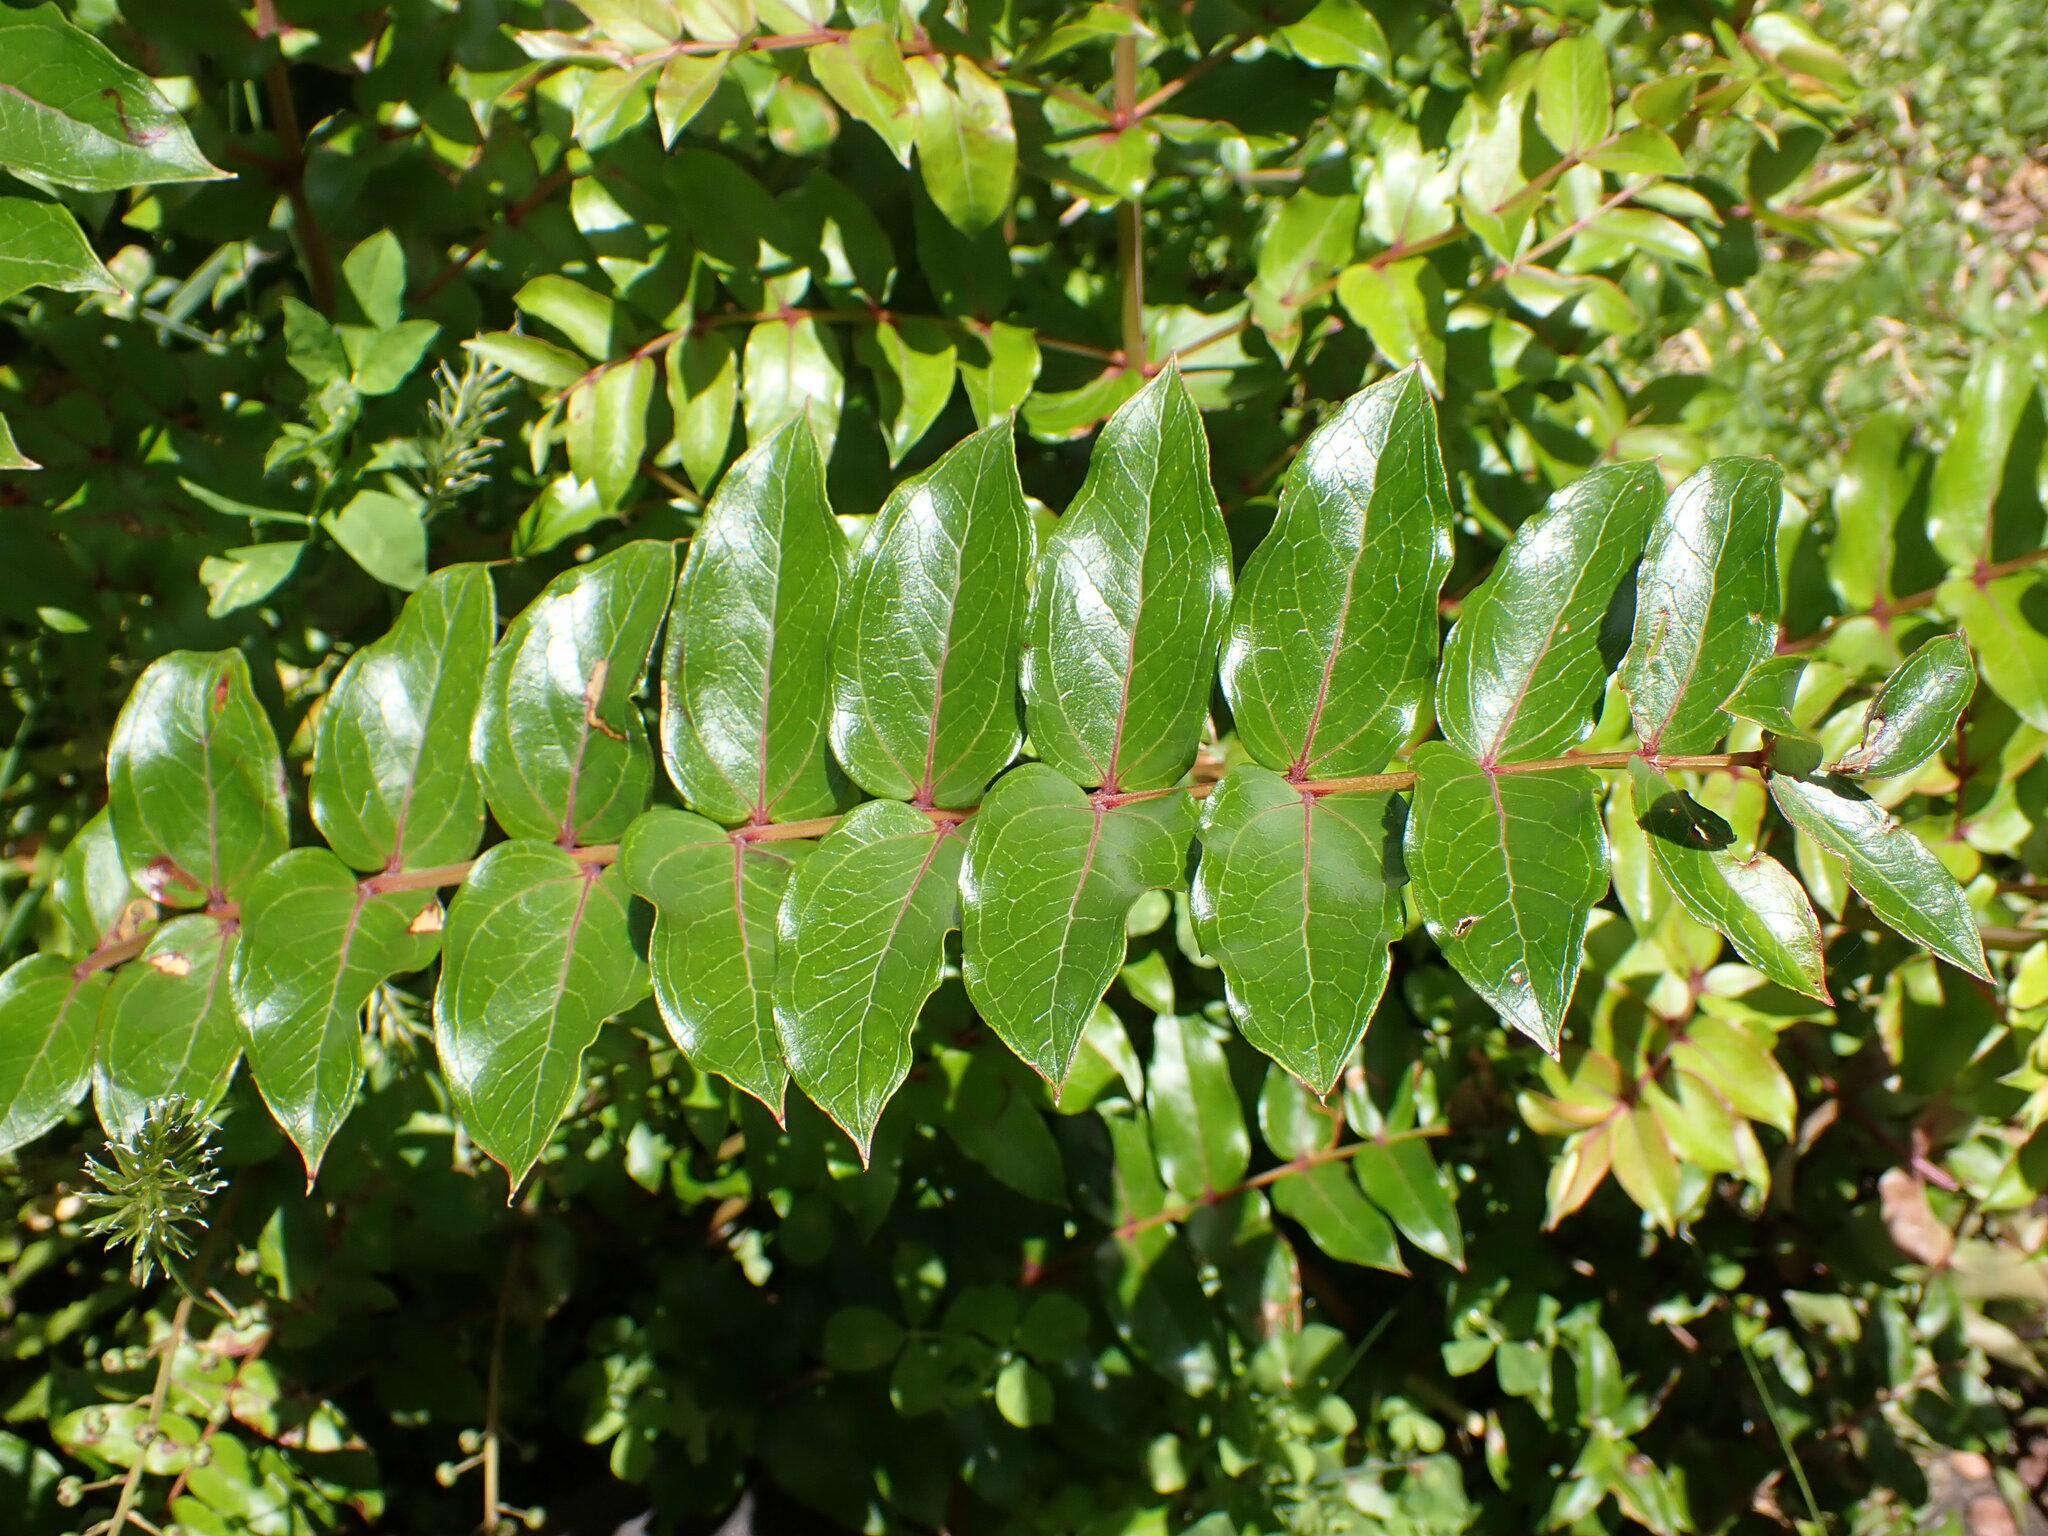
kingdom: Plantae
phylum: Tracheophyta
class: Magnoliopsida
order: Cucurbitales
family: Coriariaceae
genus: Coriaria
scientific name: Coriaria sarmentosa
